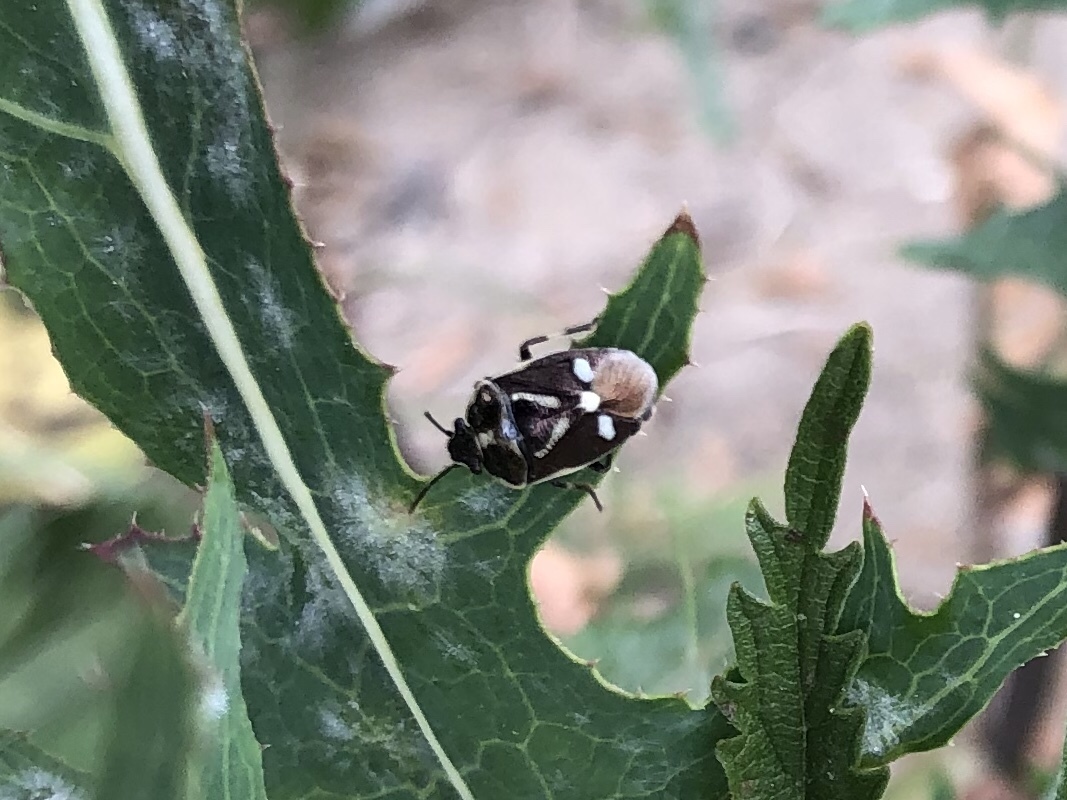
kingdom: Animalia
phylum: Arthropoda
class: Insecta
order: Hemiptera
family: Pentatomidae
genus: Eurydema
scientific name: Eurydema oleracea
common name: Cabbage bug
